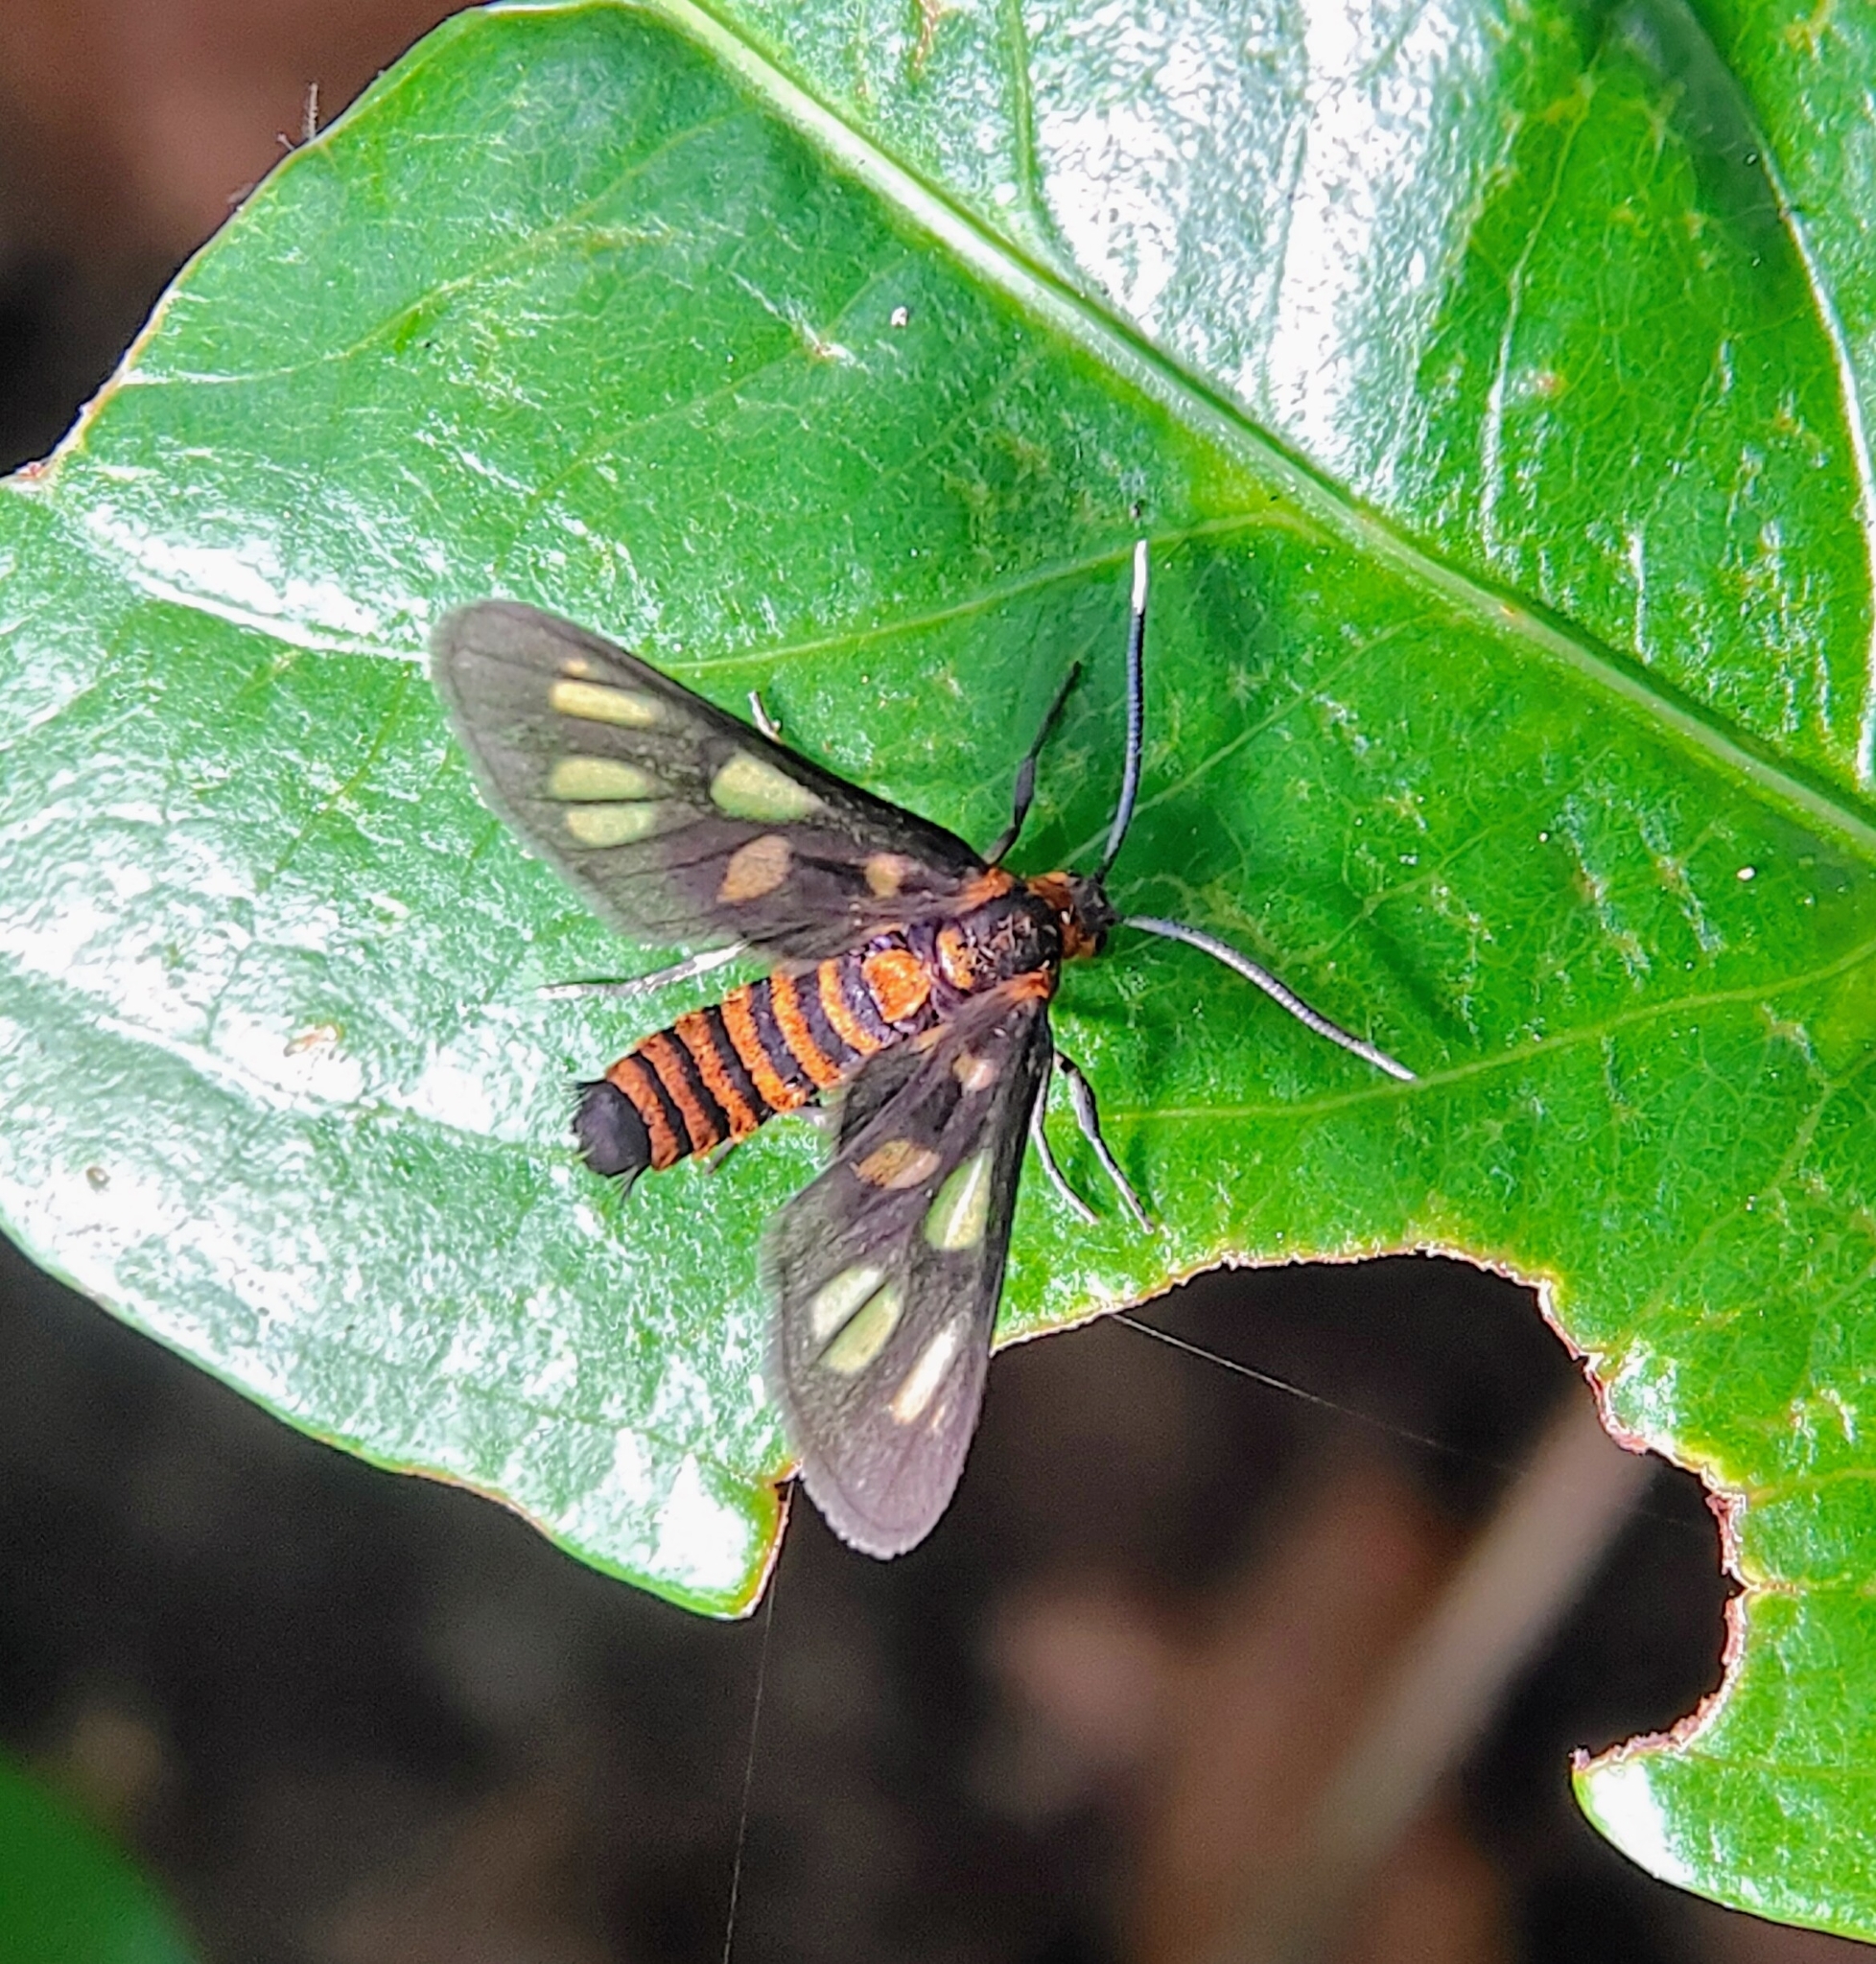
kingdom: Animalia
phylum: Arthropoda
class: Insecta
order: Lepidoptera
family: Erebidae
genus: Amata
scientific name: Amata huebneri
